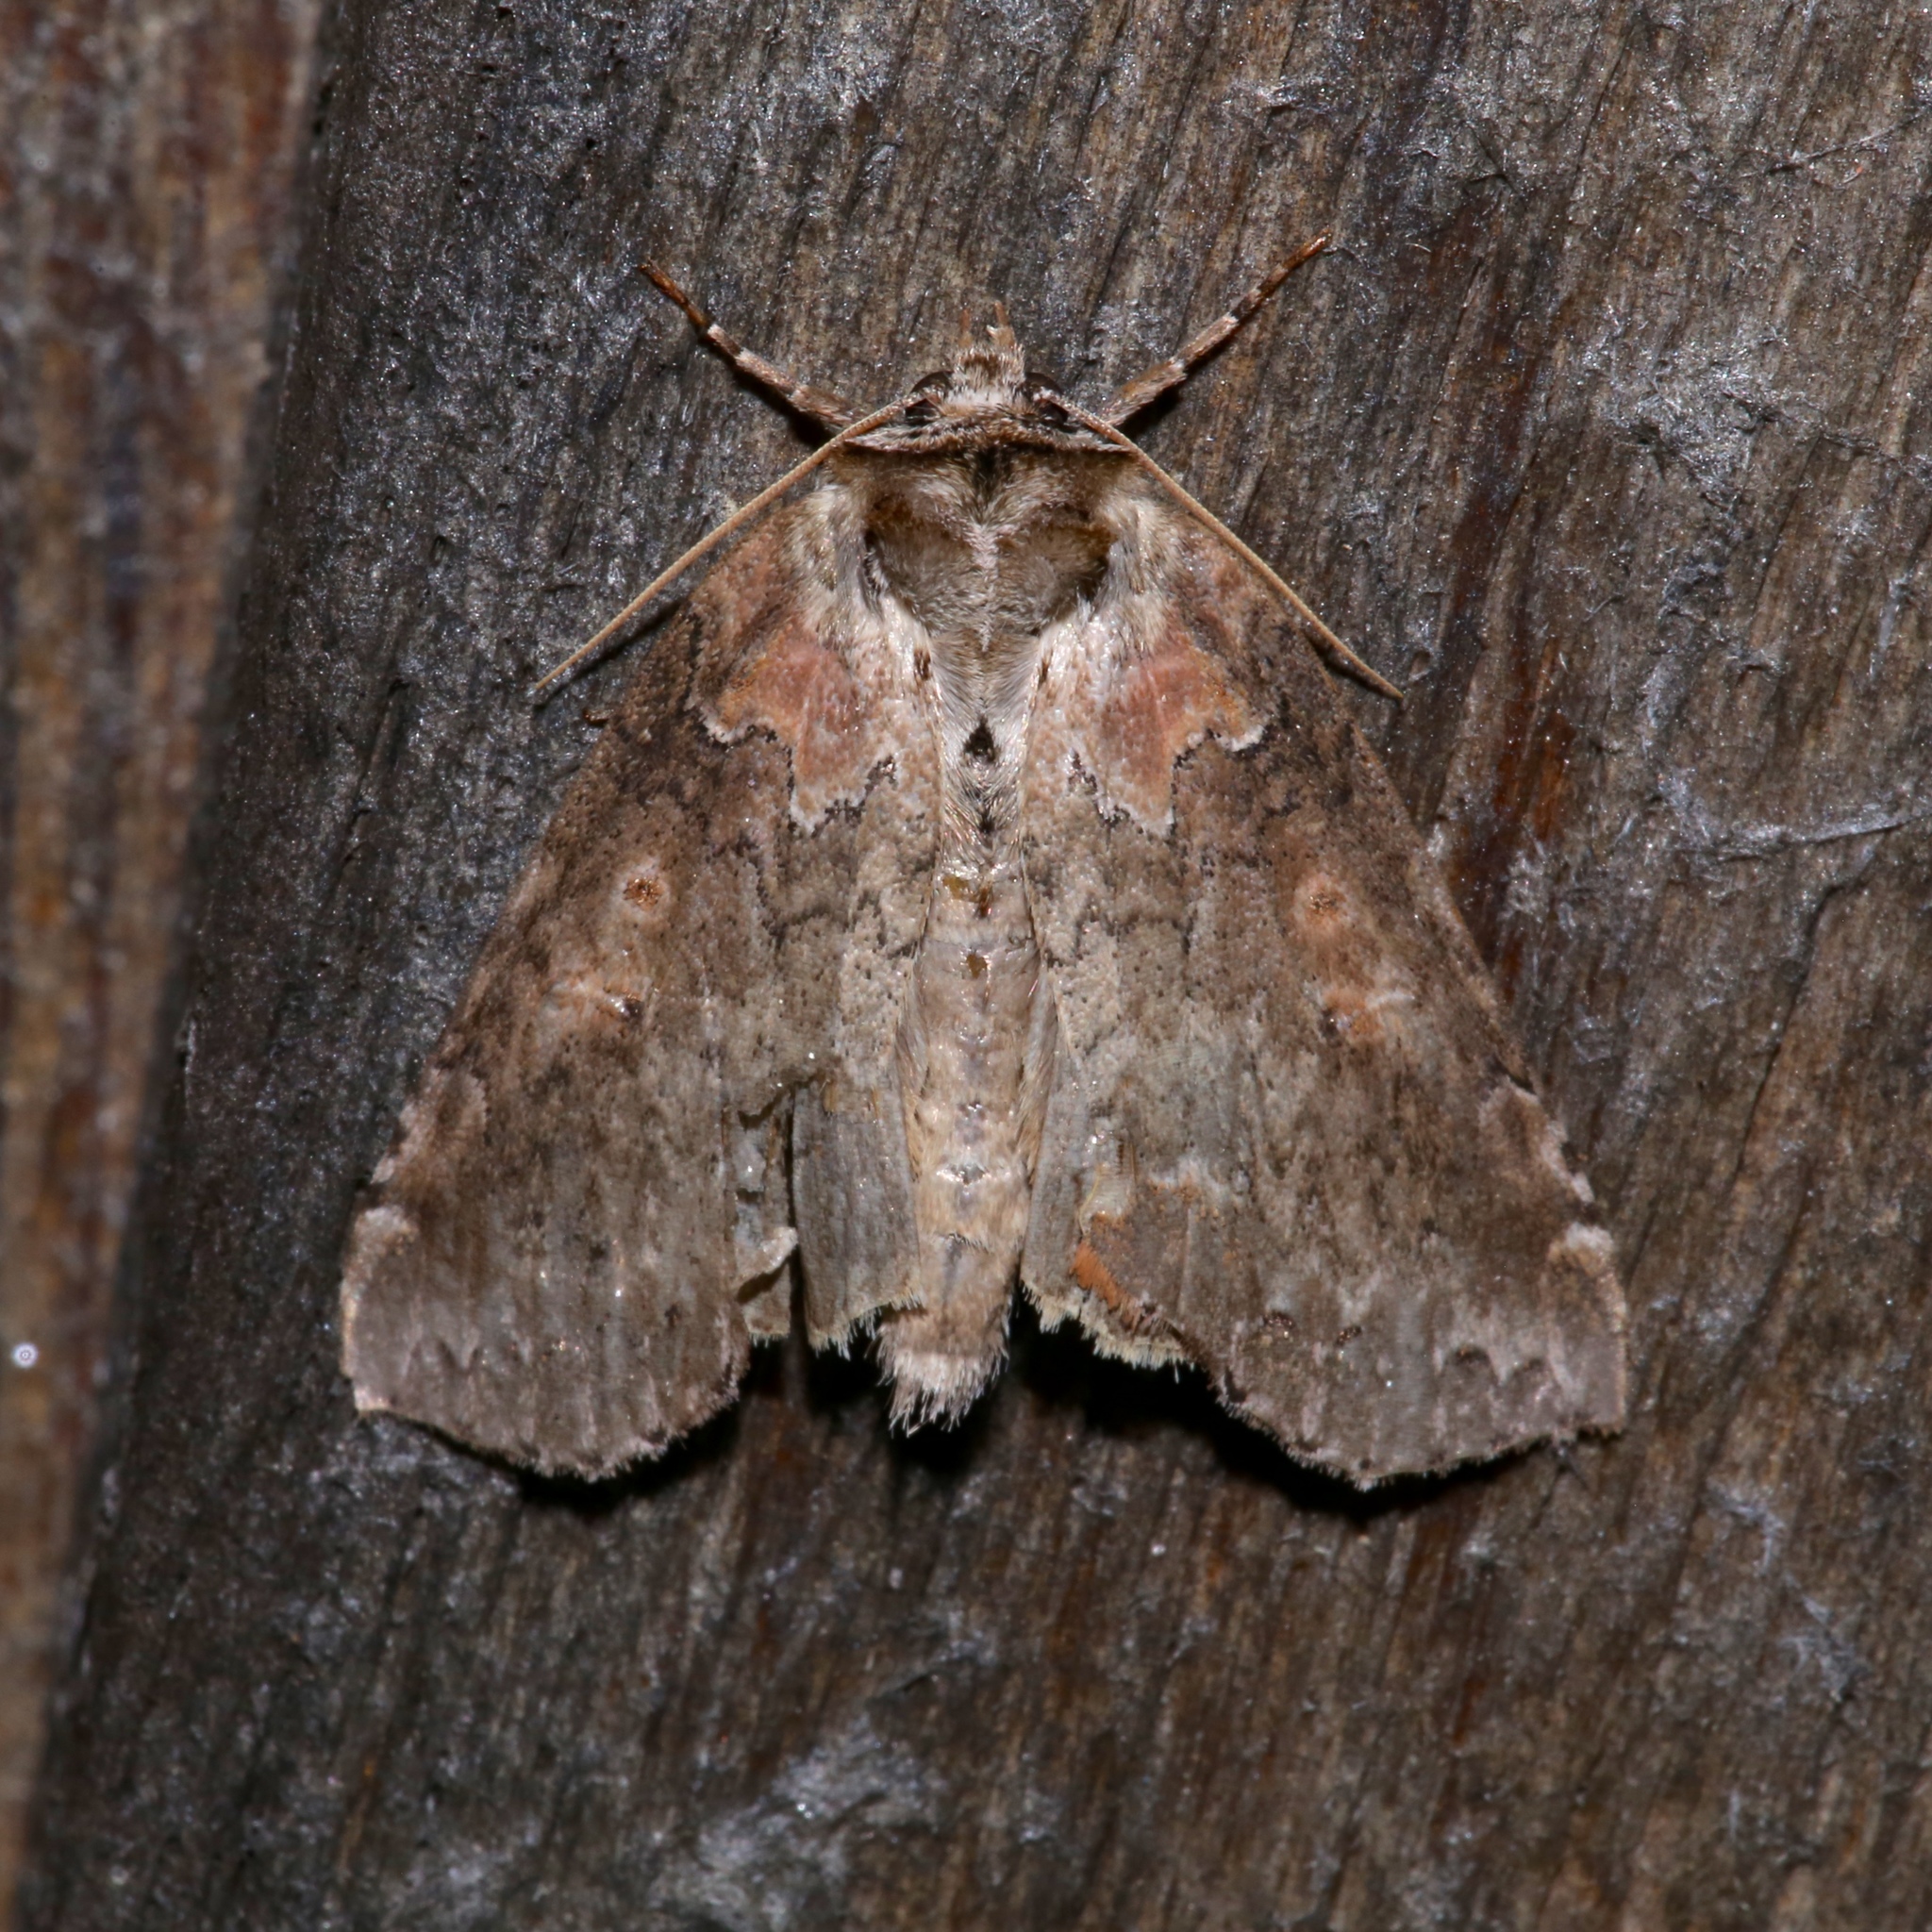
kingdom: Animalia
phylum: Arthropoda
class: Insecta
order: Lepidoptera
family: Drepanidae
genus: Pseudothyatira
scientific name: Pseudothyatira cymatophoroides
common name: Tufted thyatirid moth
